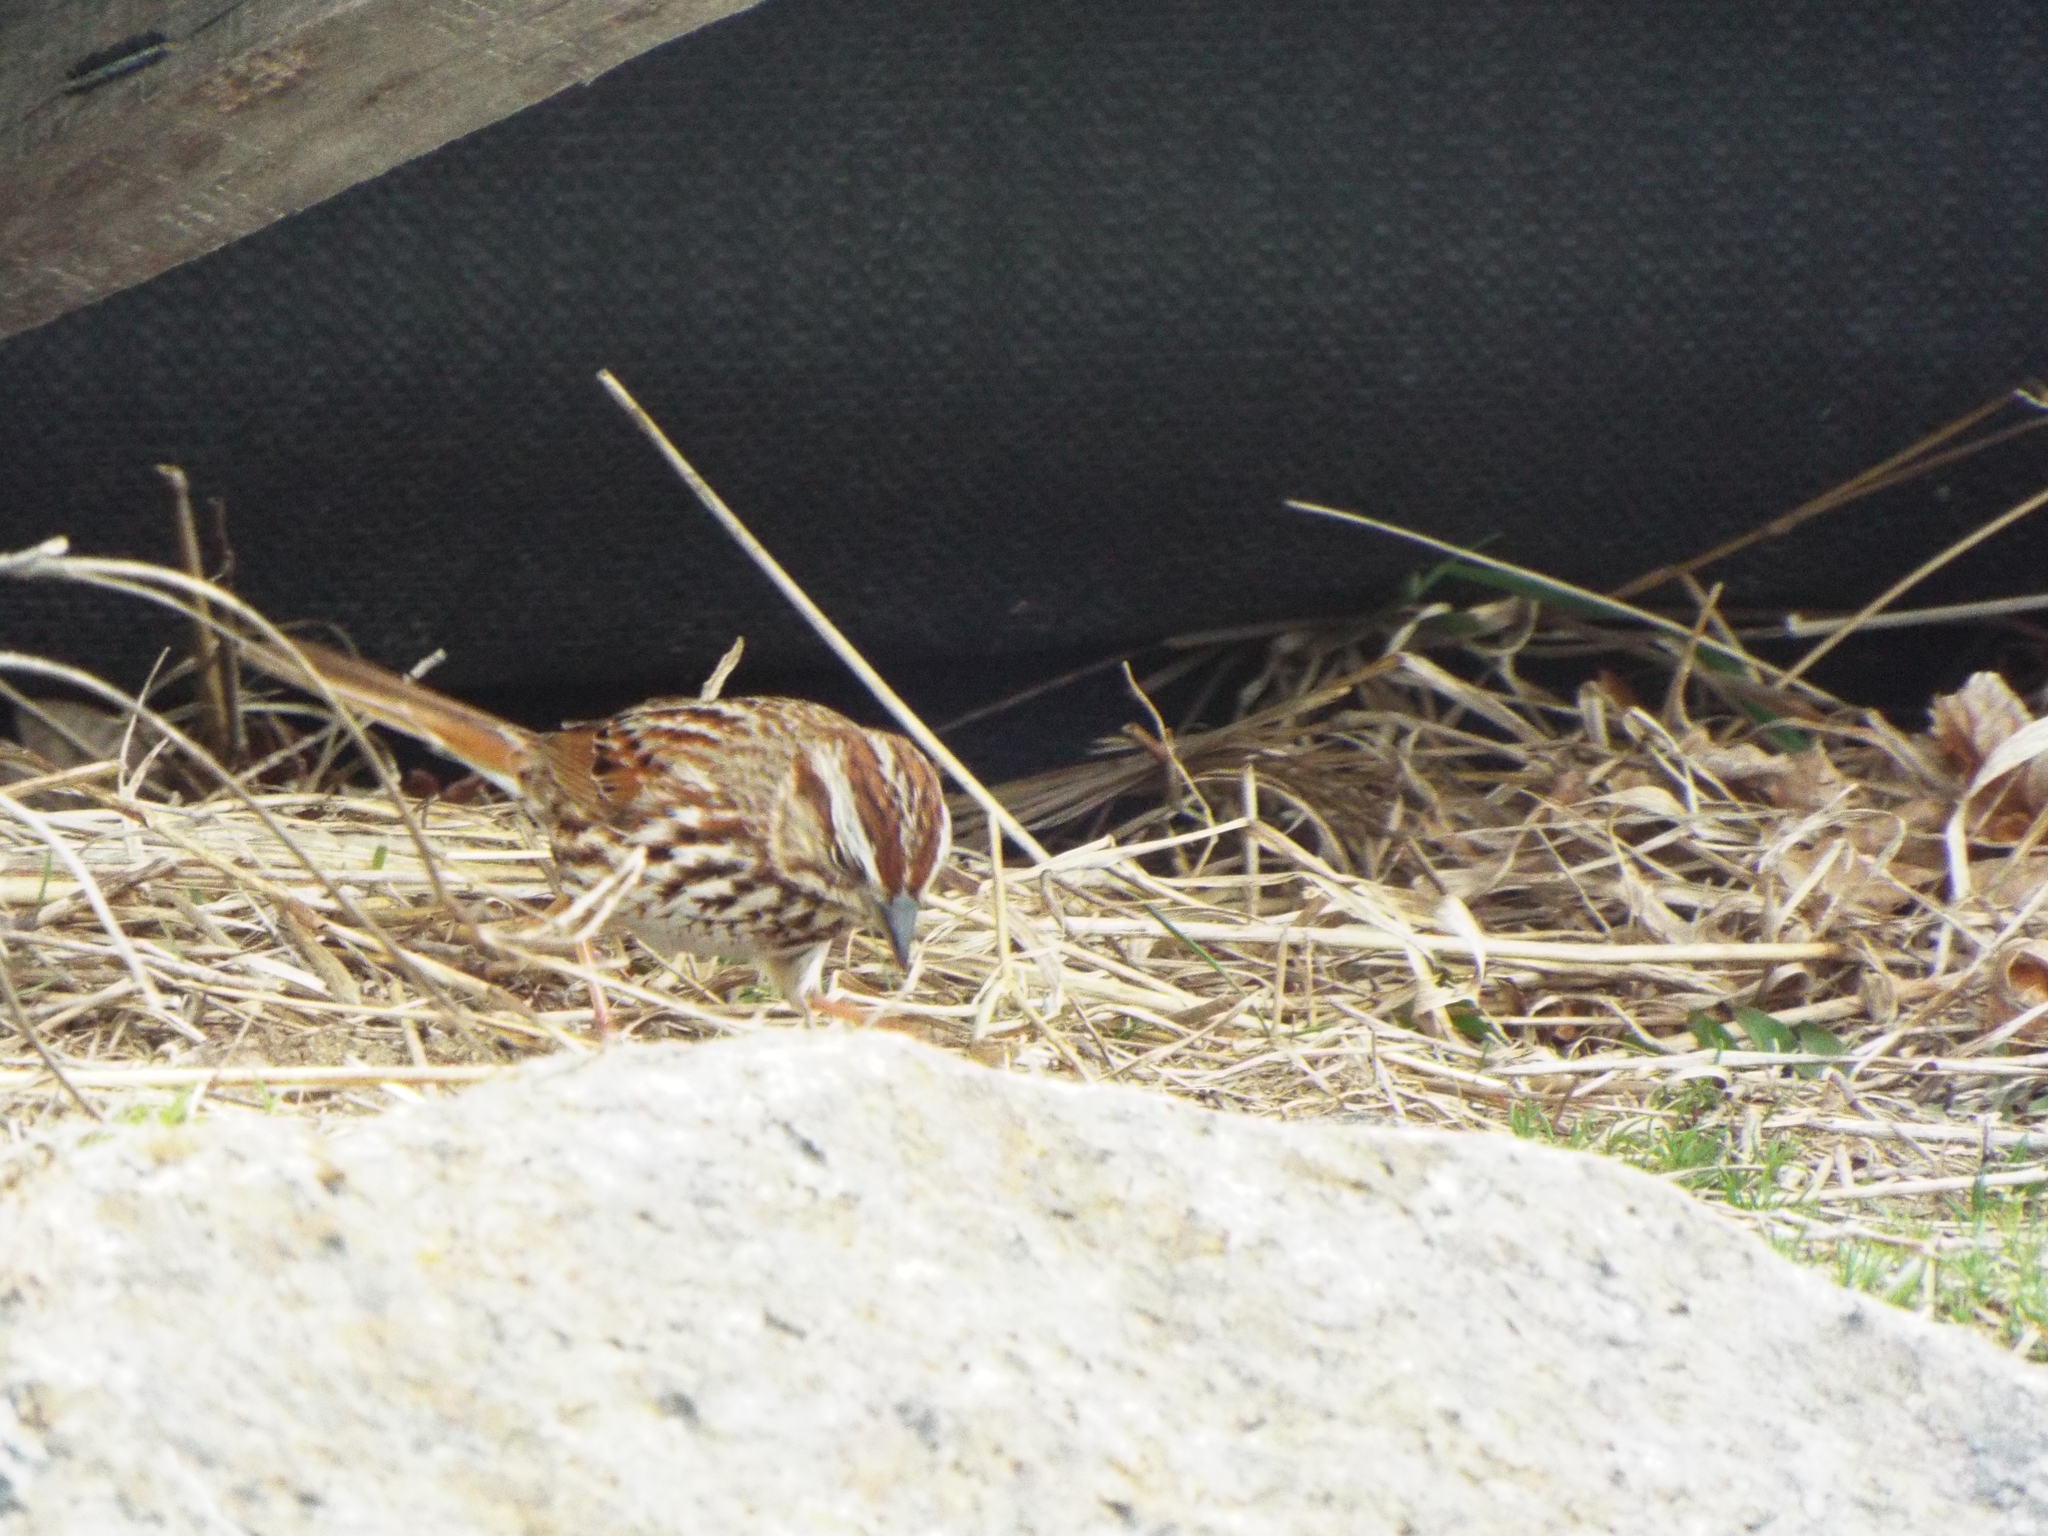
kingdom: Animalia
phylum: Chordata
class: Aves
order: Passeriformes
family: Passerellidae
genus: Melospiza
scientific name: Melospiza melodia
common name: Song sparrow
